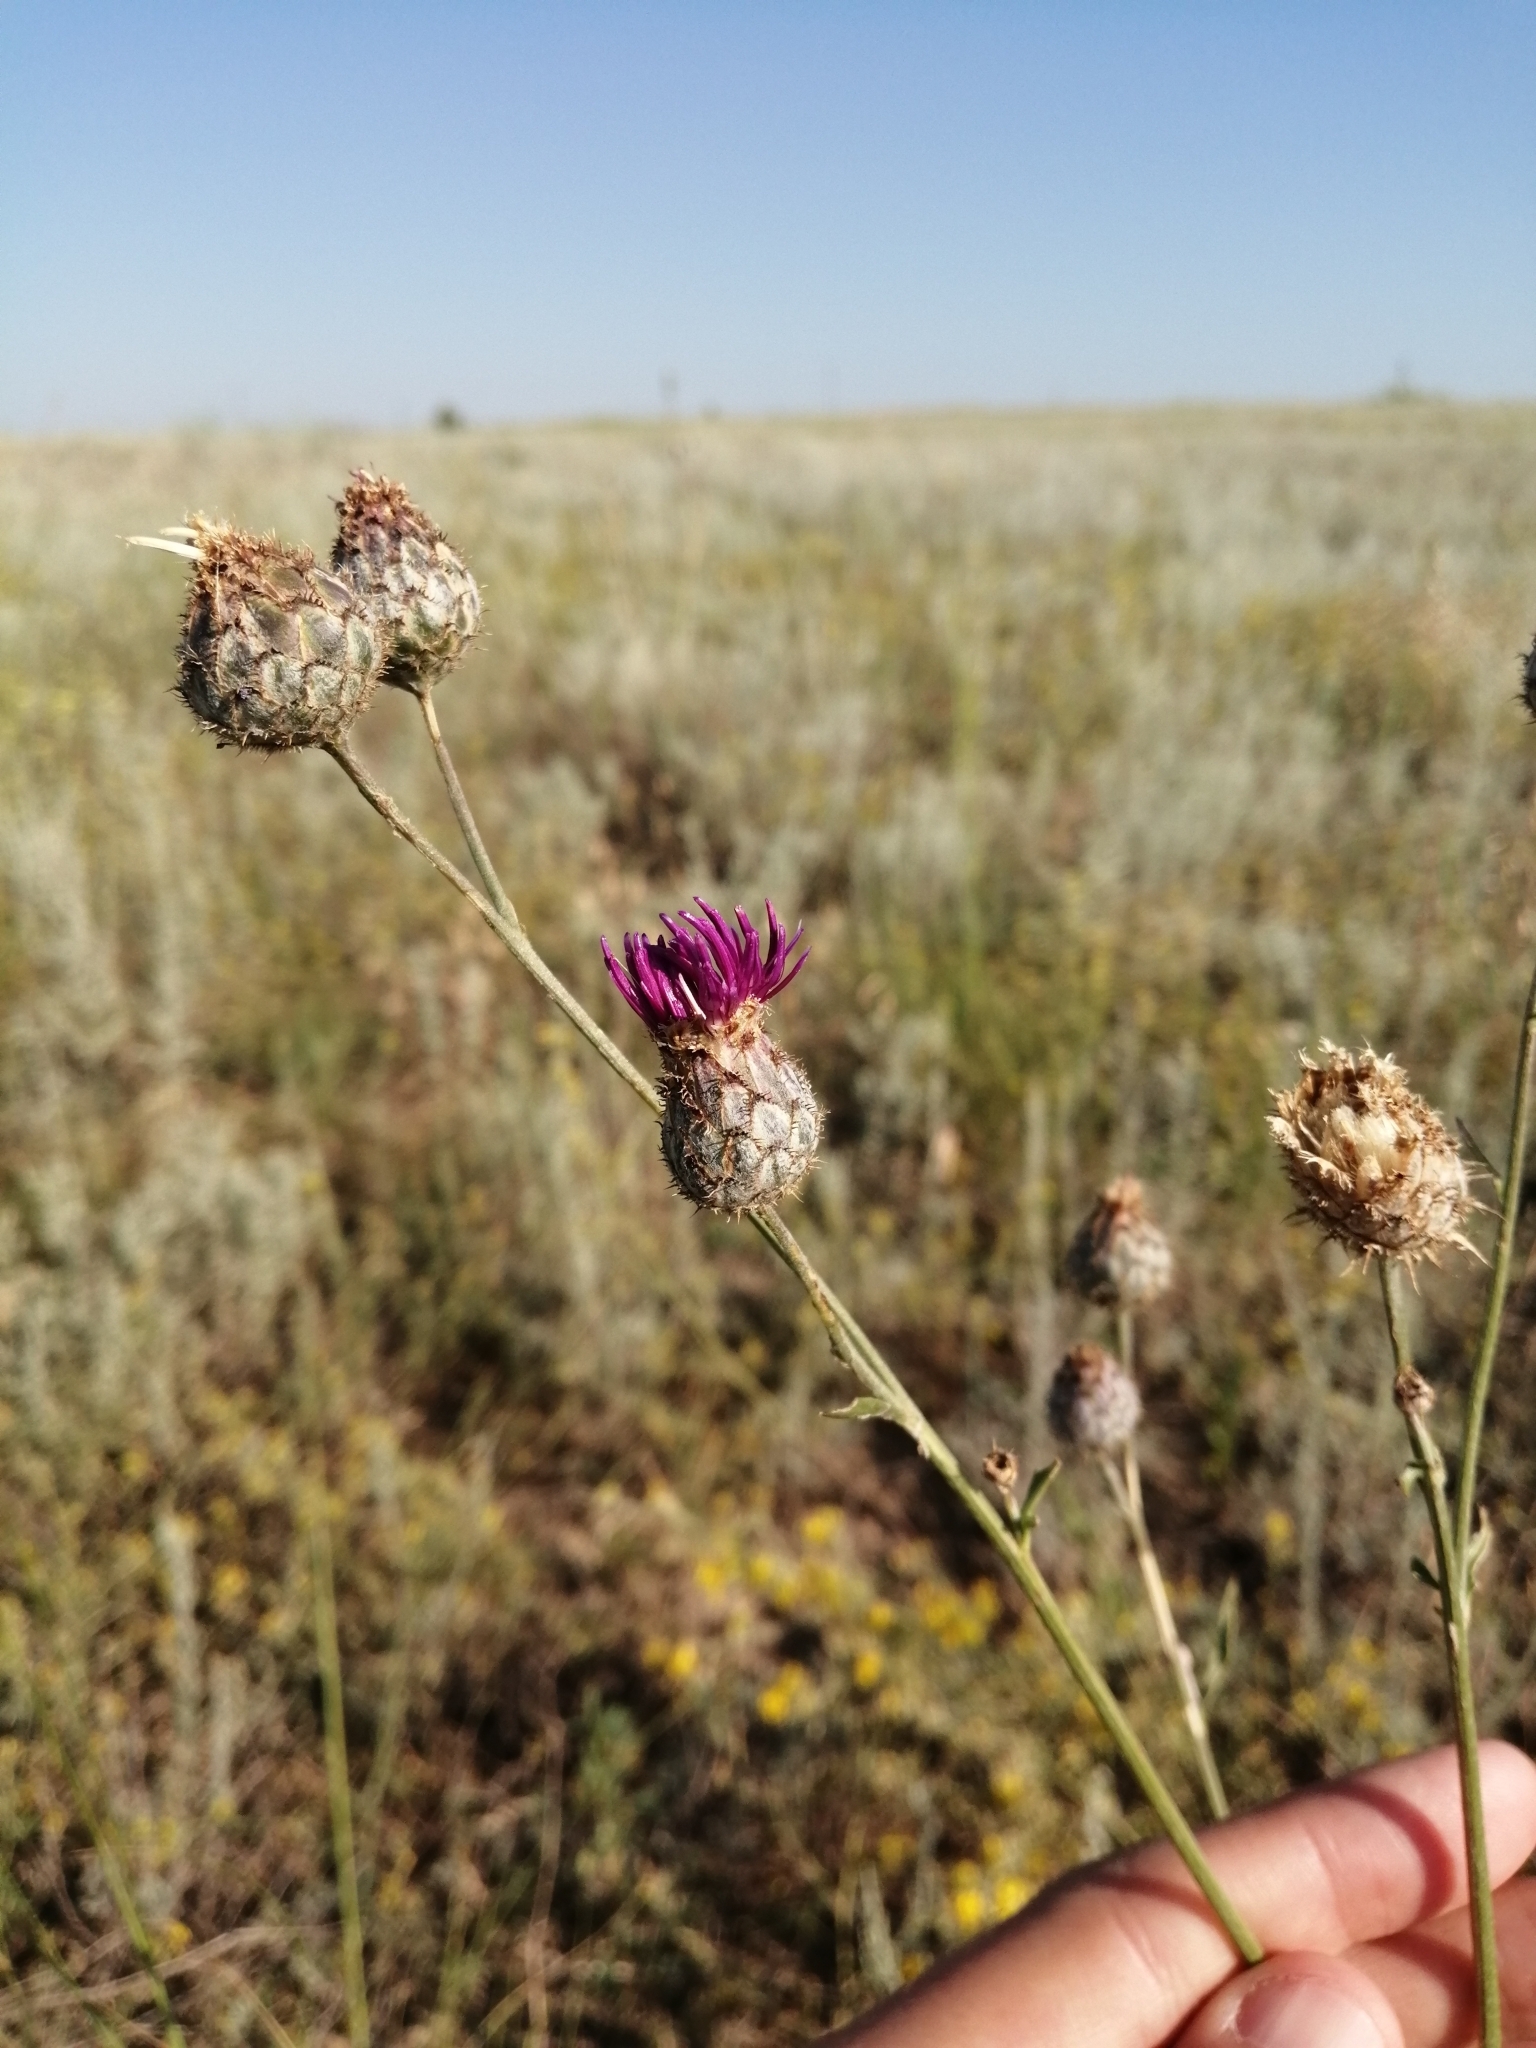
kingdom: Plantae
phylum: Tracheophyta
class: Magnoliopsida
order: Asterales
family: Asteraceae
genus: Centaurea
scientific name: Centaurea apiculata
